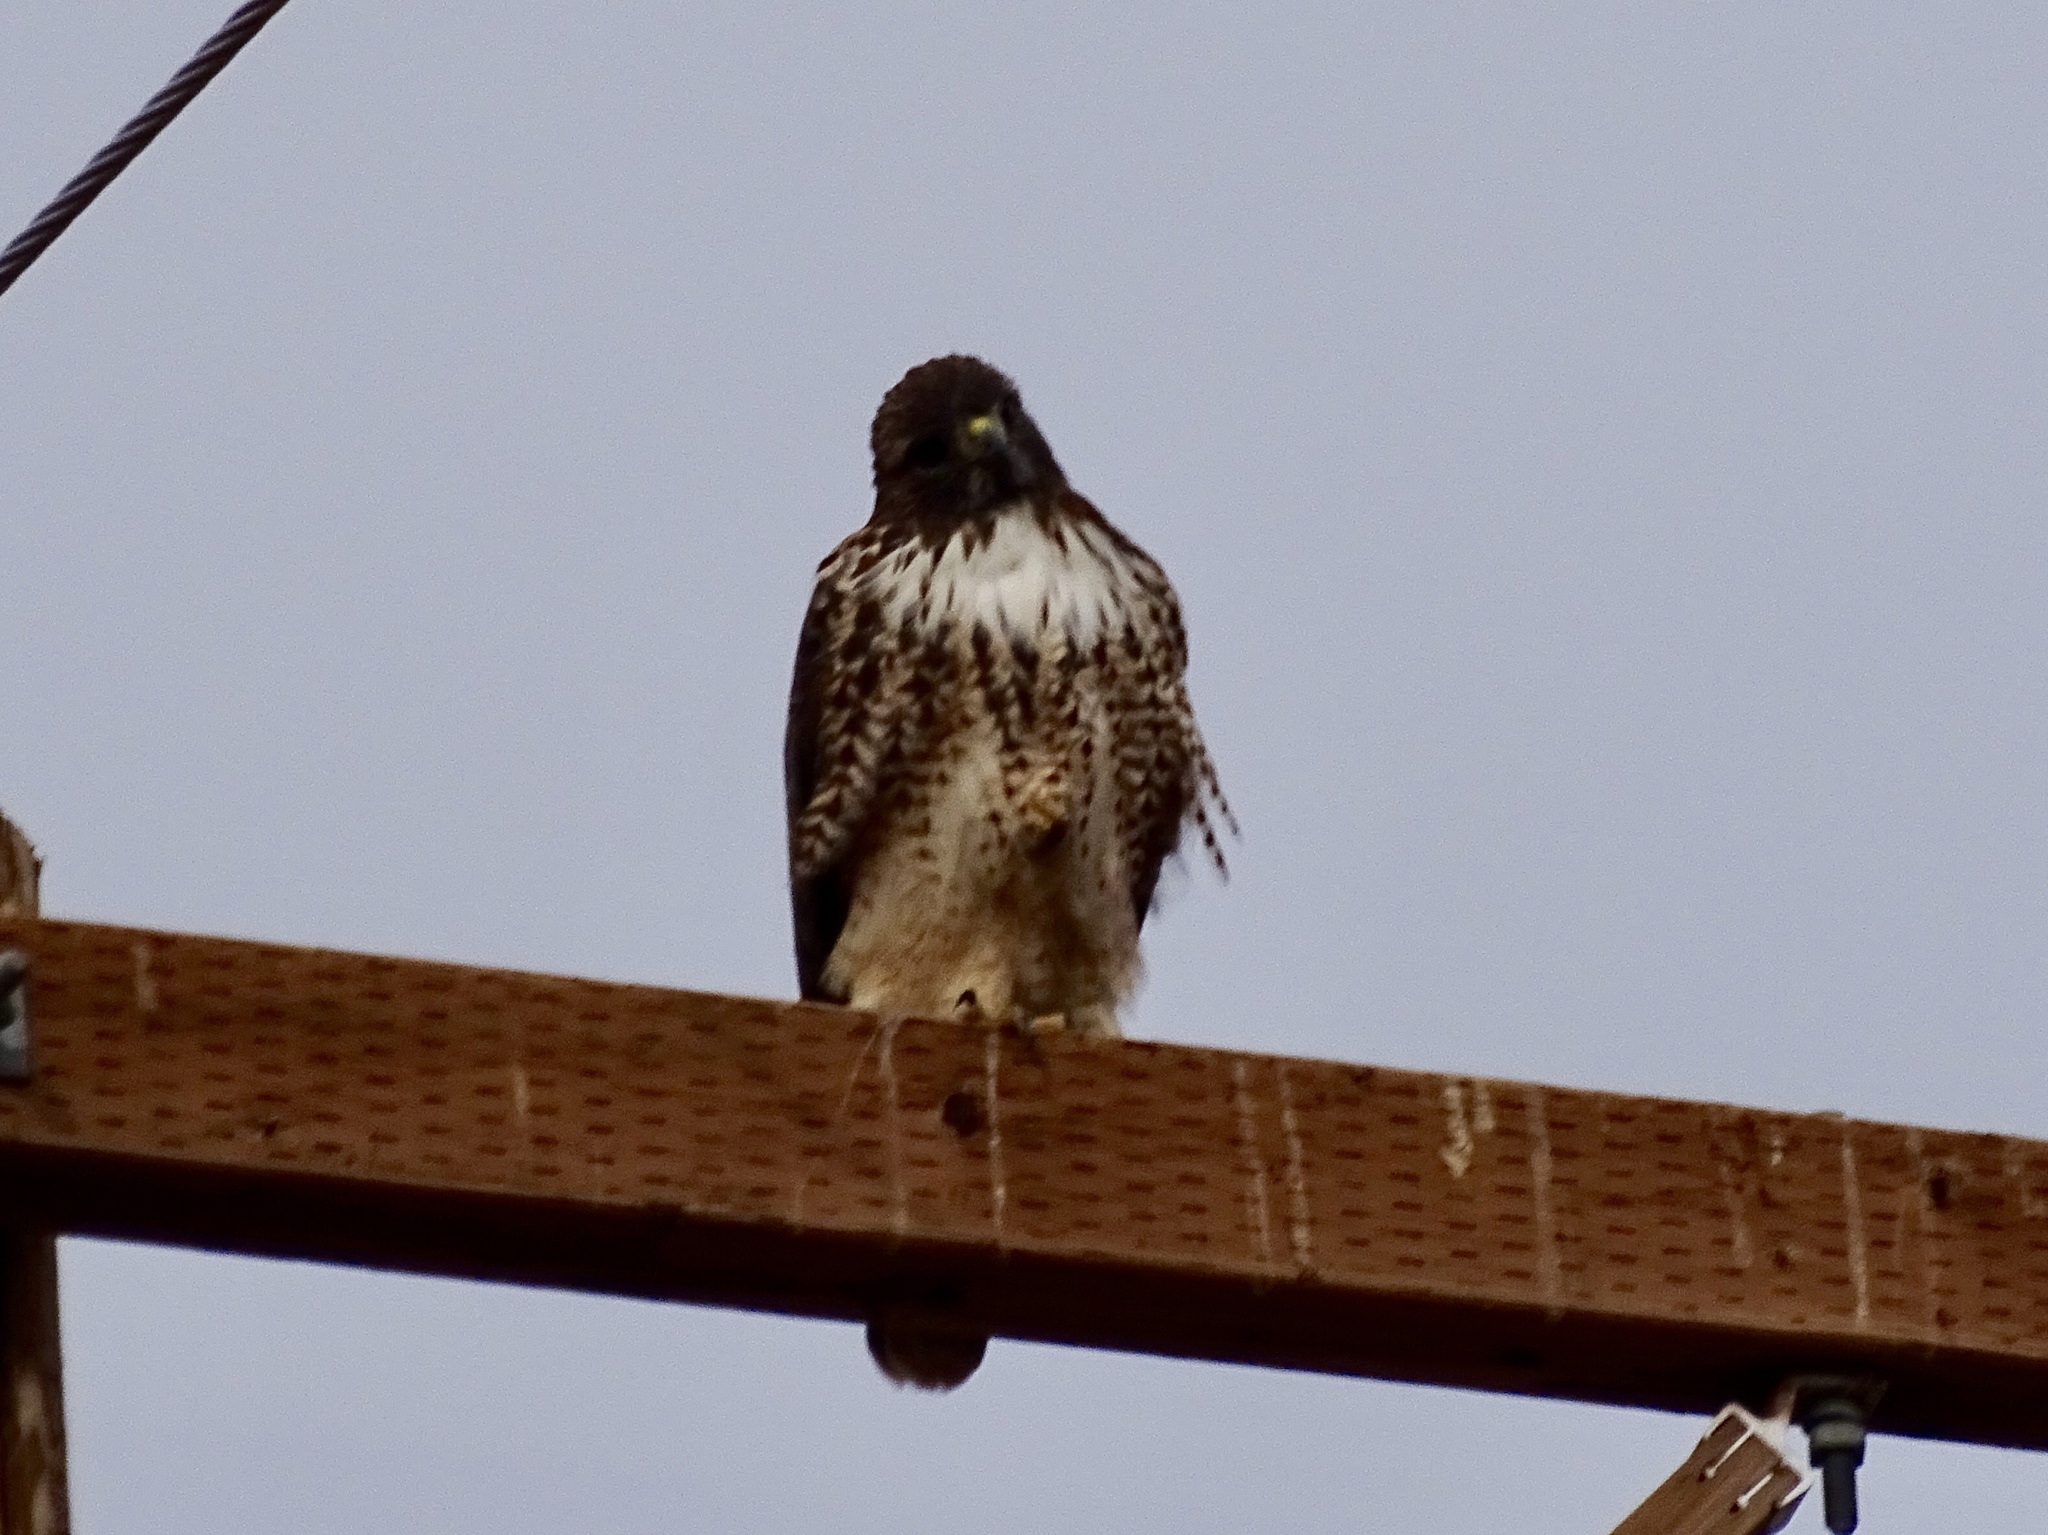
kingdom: Animalia
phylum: Chordata
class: Aves
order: Accipitriformes
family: Accipitridae
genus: Buteo
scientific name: Buteo jamaicensis
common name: Red-tailed hawk
